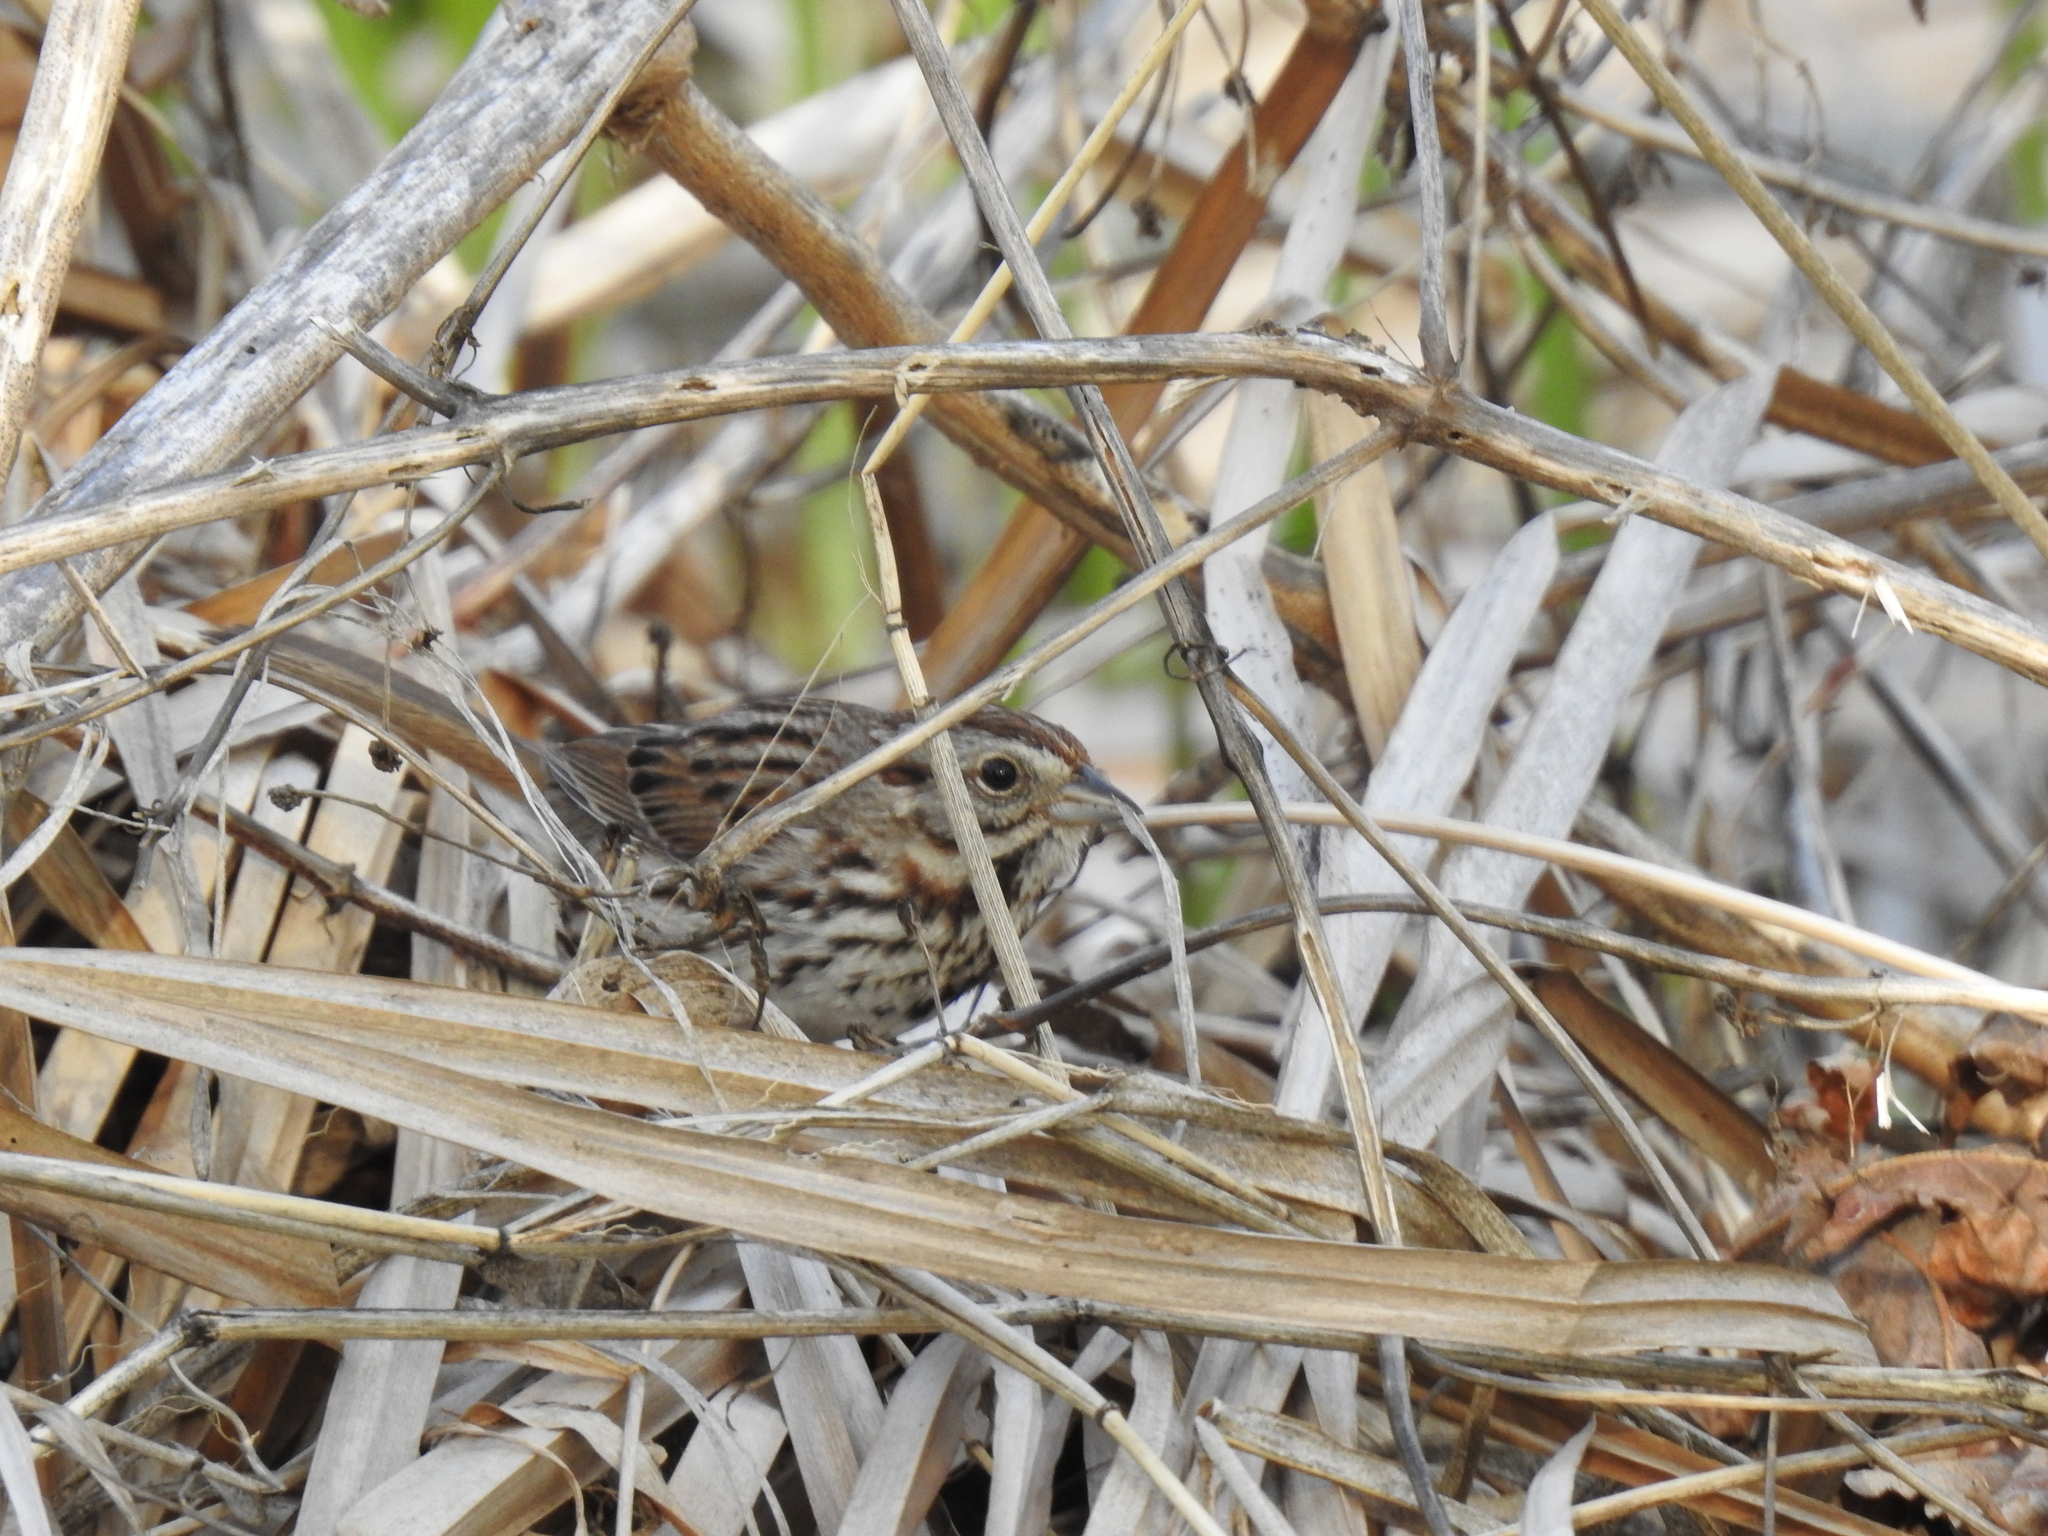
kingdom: Animalia
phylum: Chordata
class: Aves
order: Passeriformes
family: Passerellidae
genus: Melospiza
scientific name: Melospiza melodia
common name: Song sparrow
